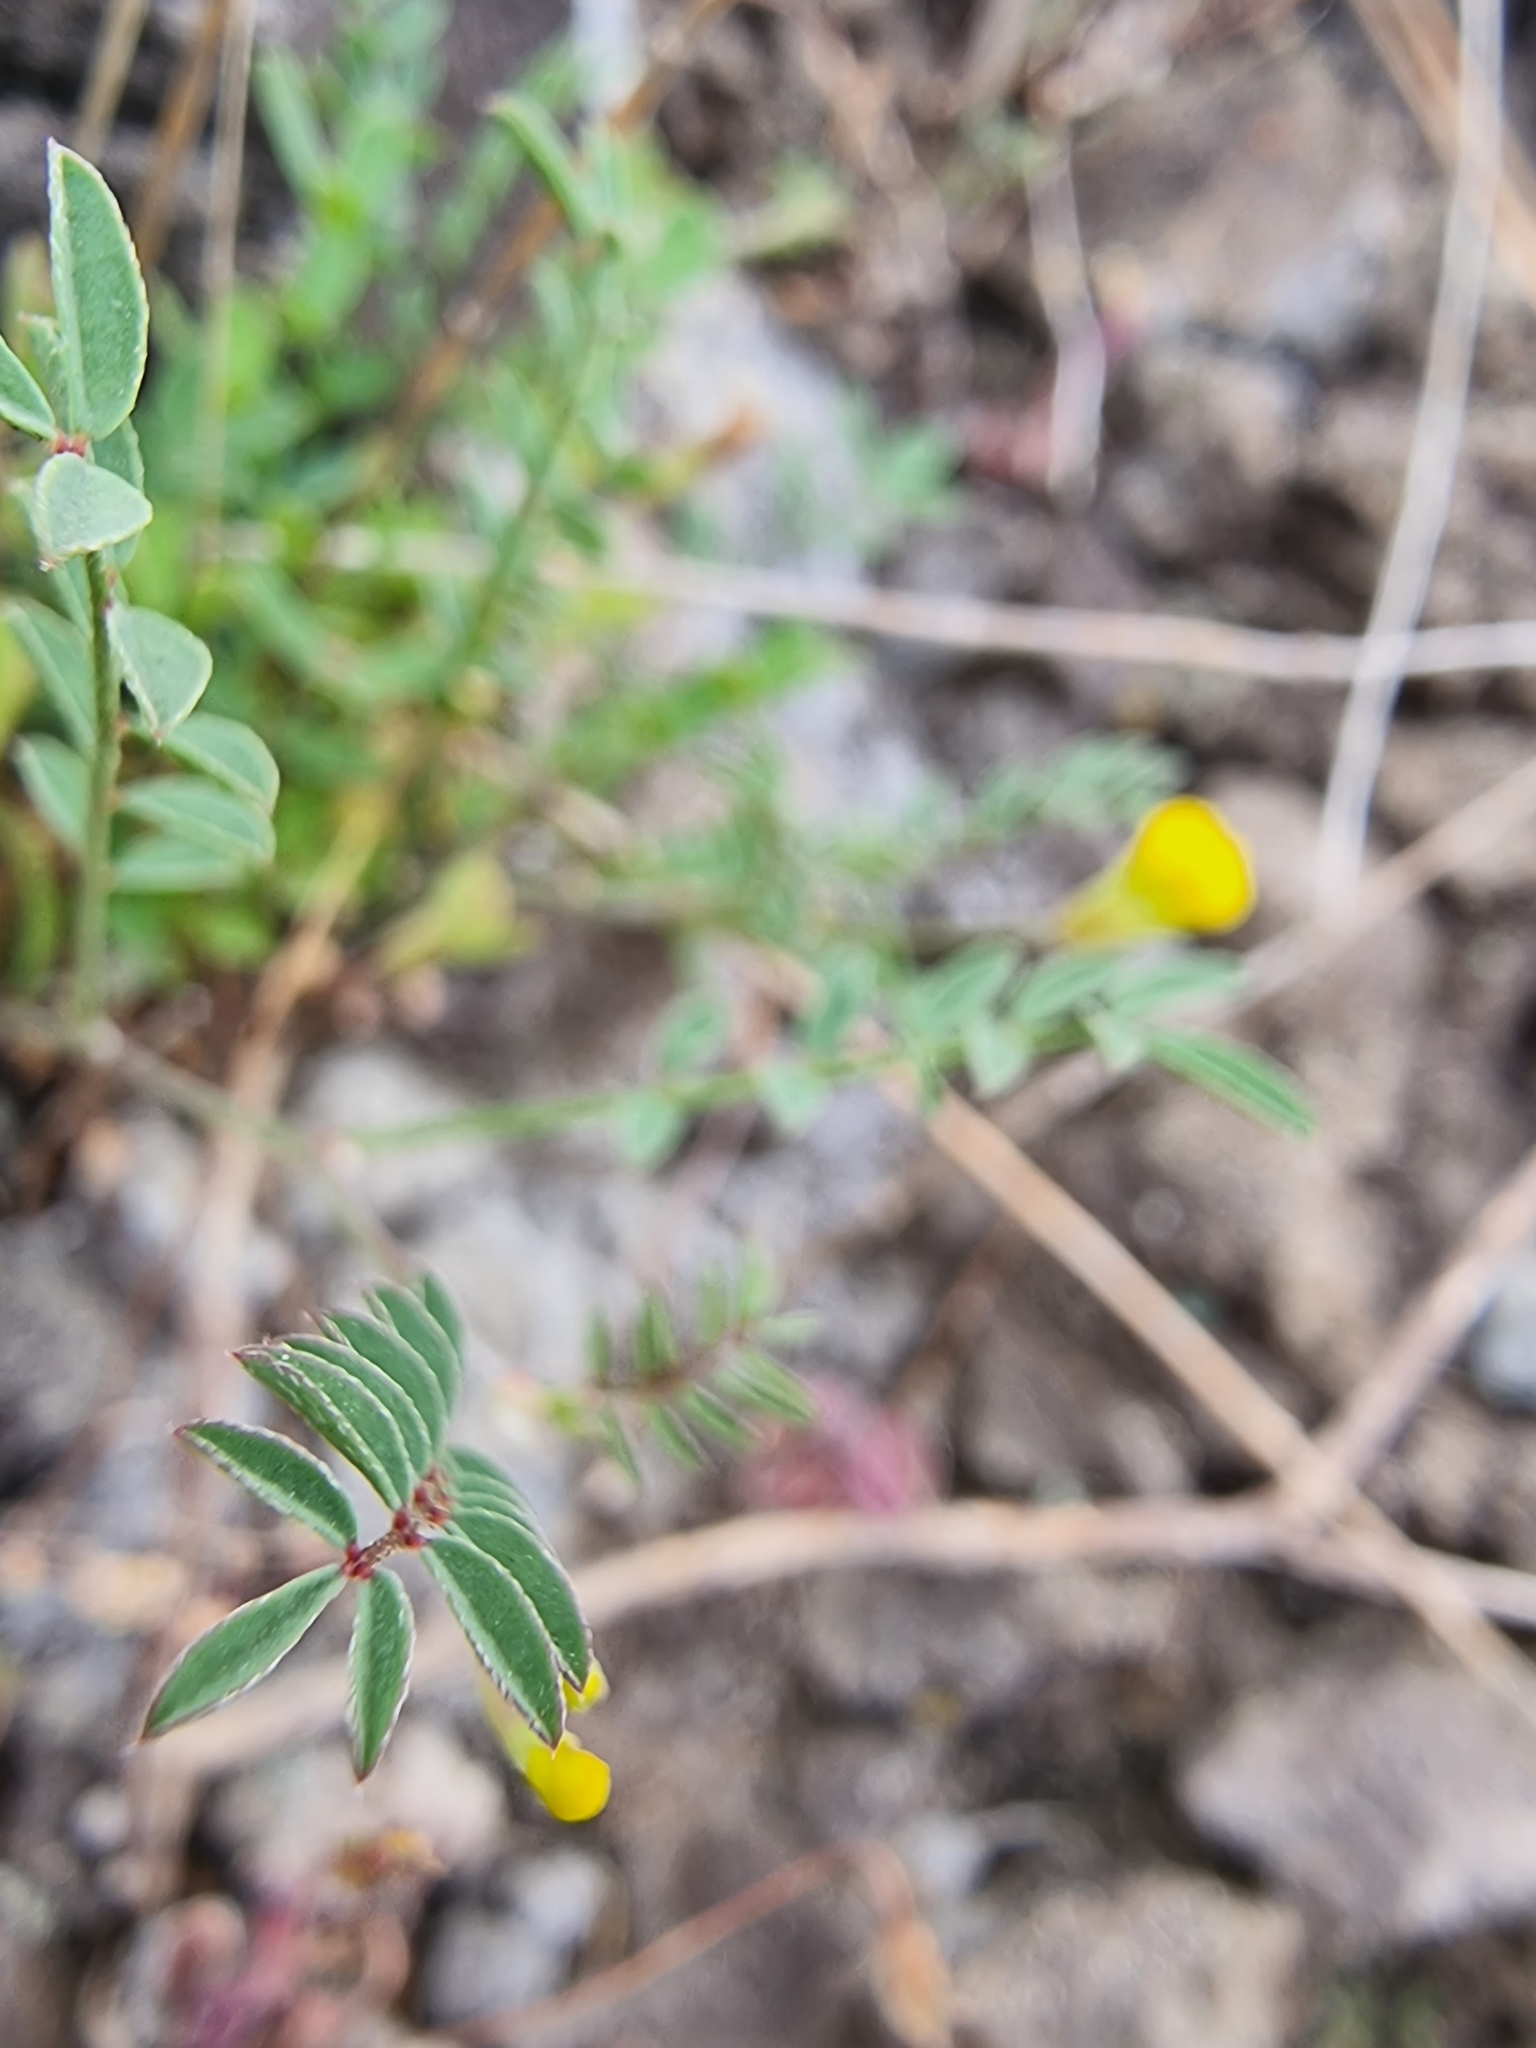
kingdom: Plantae
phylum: Tracheophyta
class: Magnoliopsida
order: Fabales
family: Fabaceae
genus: Ornithopus
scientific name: Ornithopus pinnatus
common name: Orange bird's-foot
